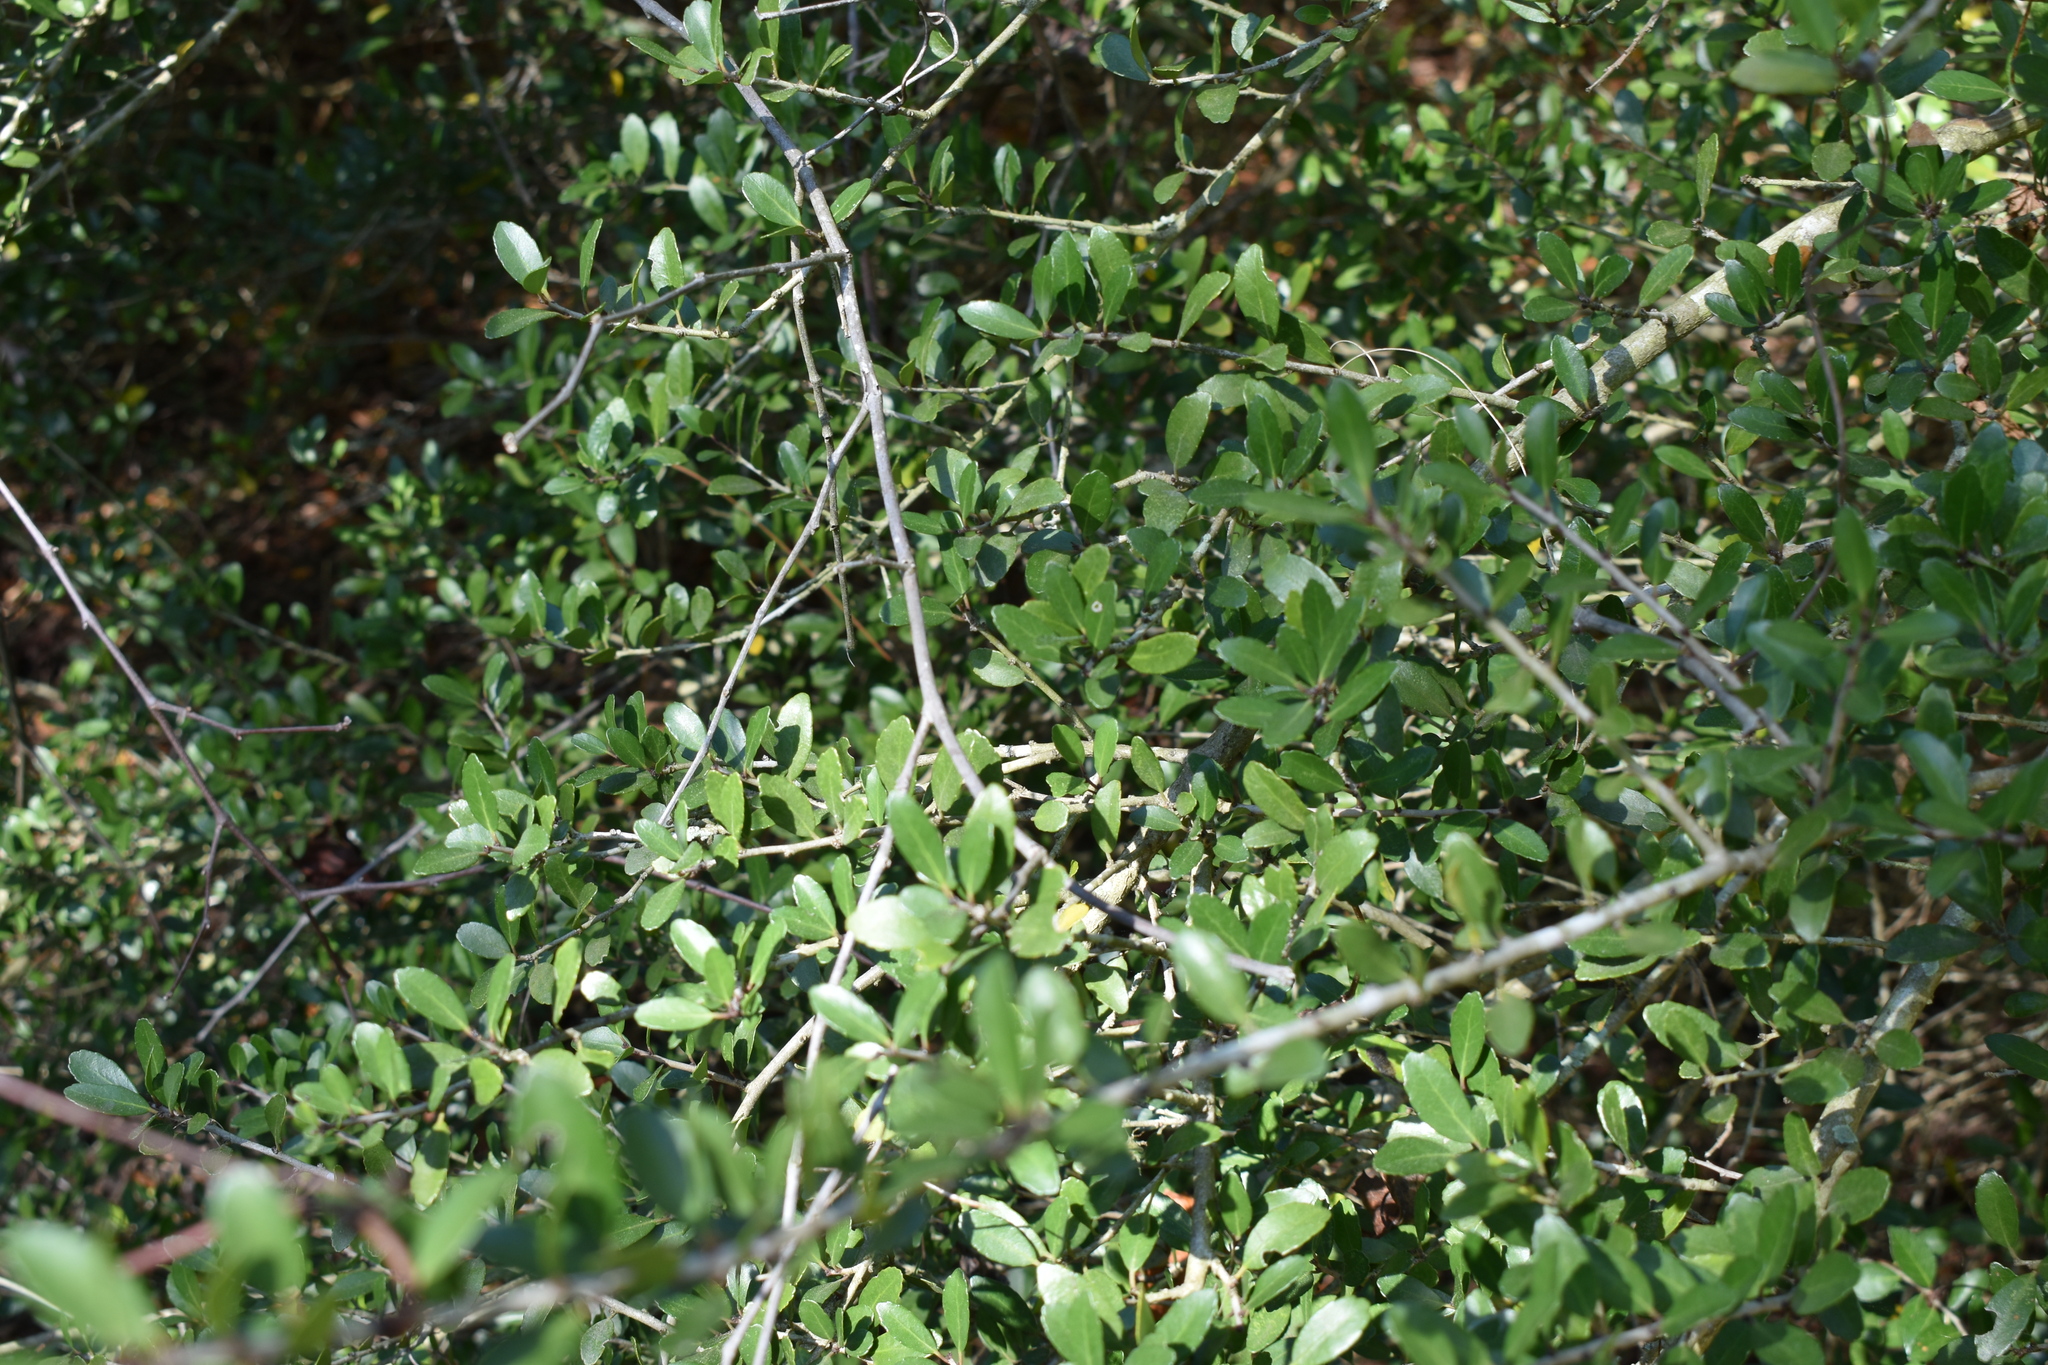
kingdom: Plantae
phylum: Tracheophyta
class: Magnoliopsida
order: Aquifoliales
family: Aquifoliaceae
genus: Ilex
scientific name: Ilex vomitoria
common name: Yaupon holly
